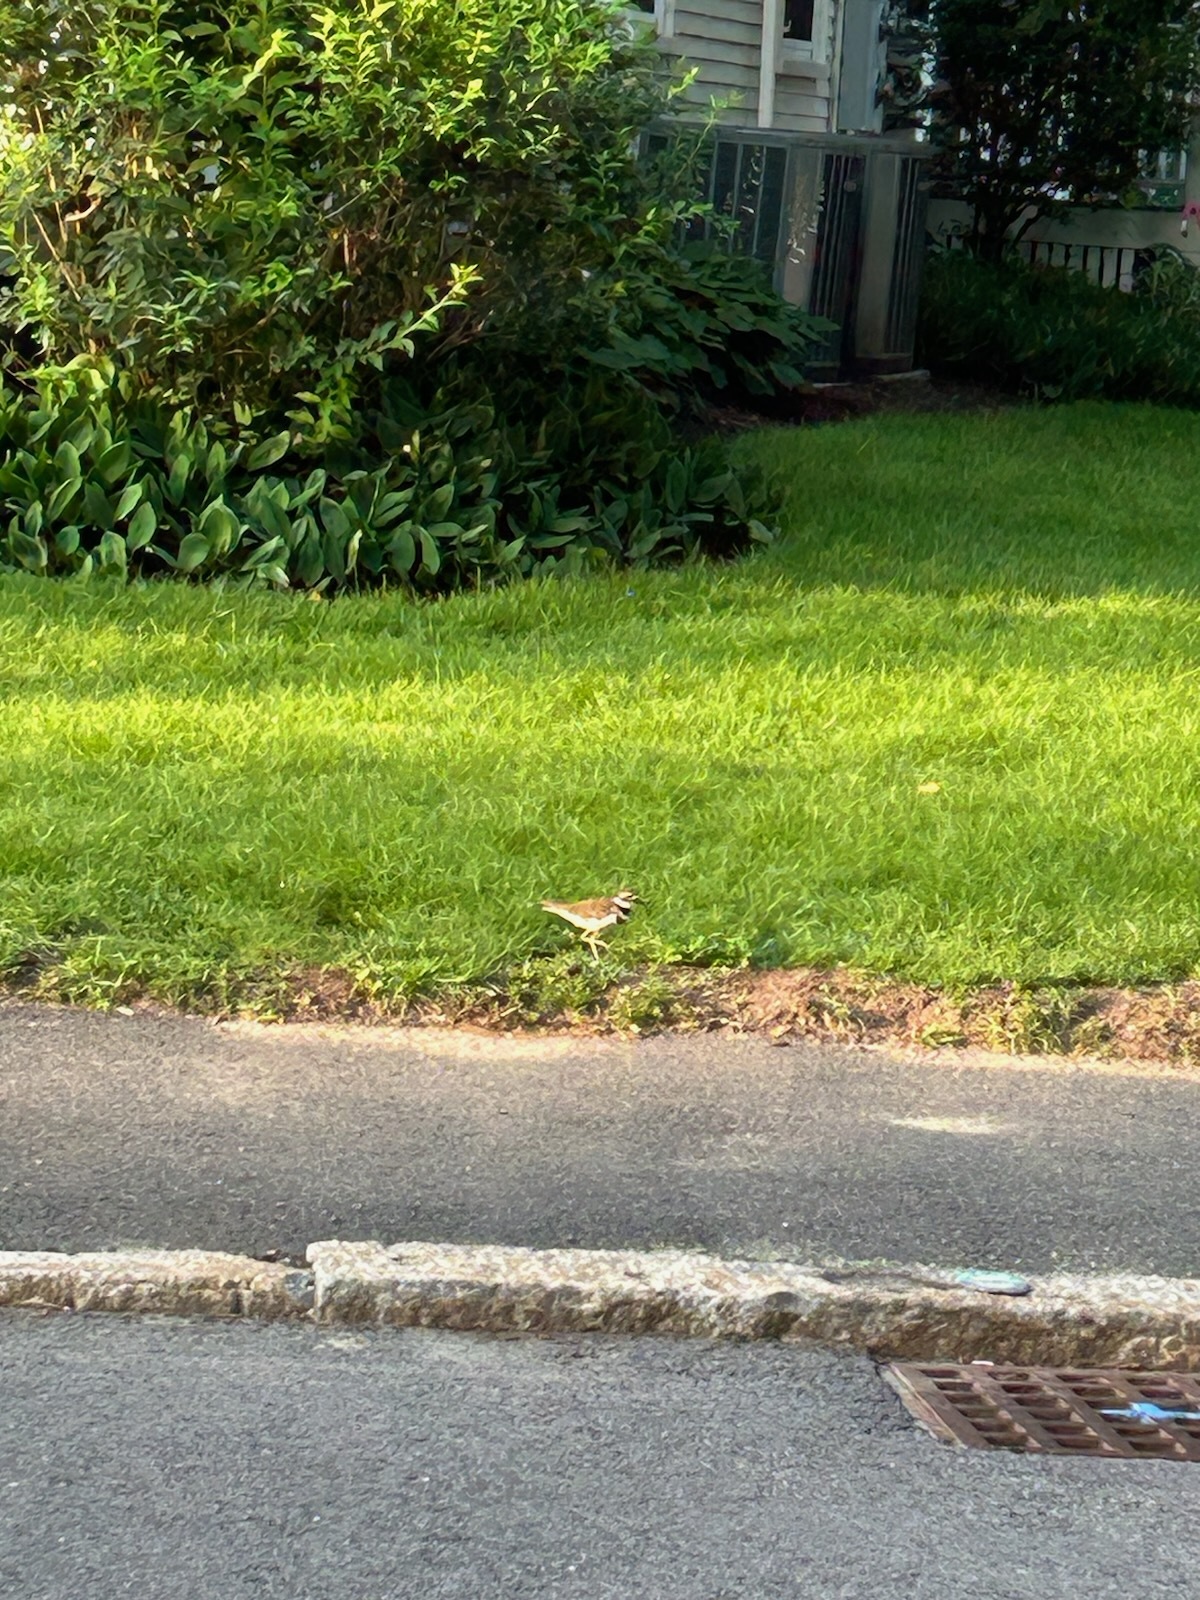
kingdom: Animalia
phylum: Chordata
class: Aves
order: Charadriiformes
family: Charadriidae
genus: Charadrius
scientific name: Charadrius vociferus
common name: Killdeer
